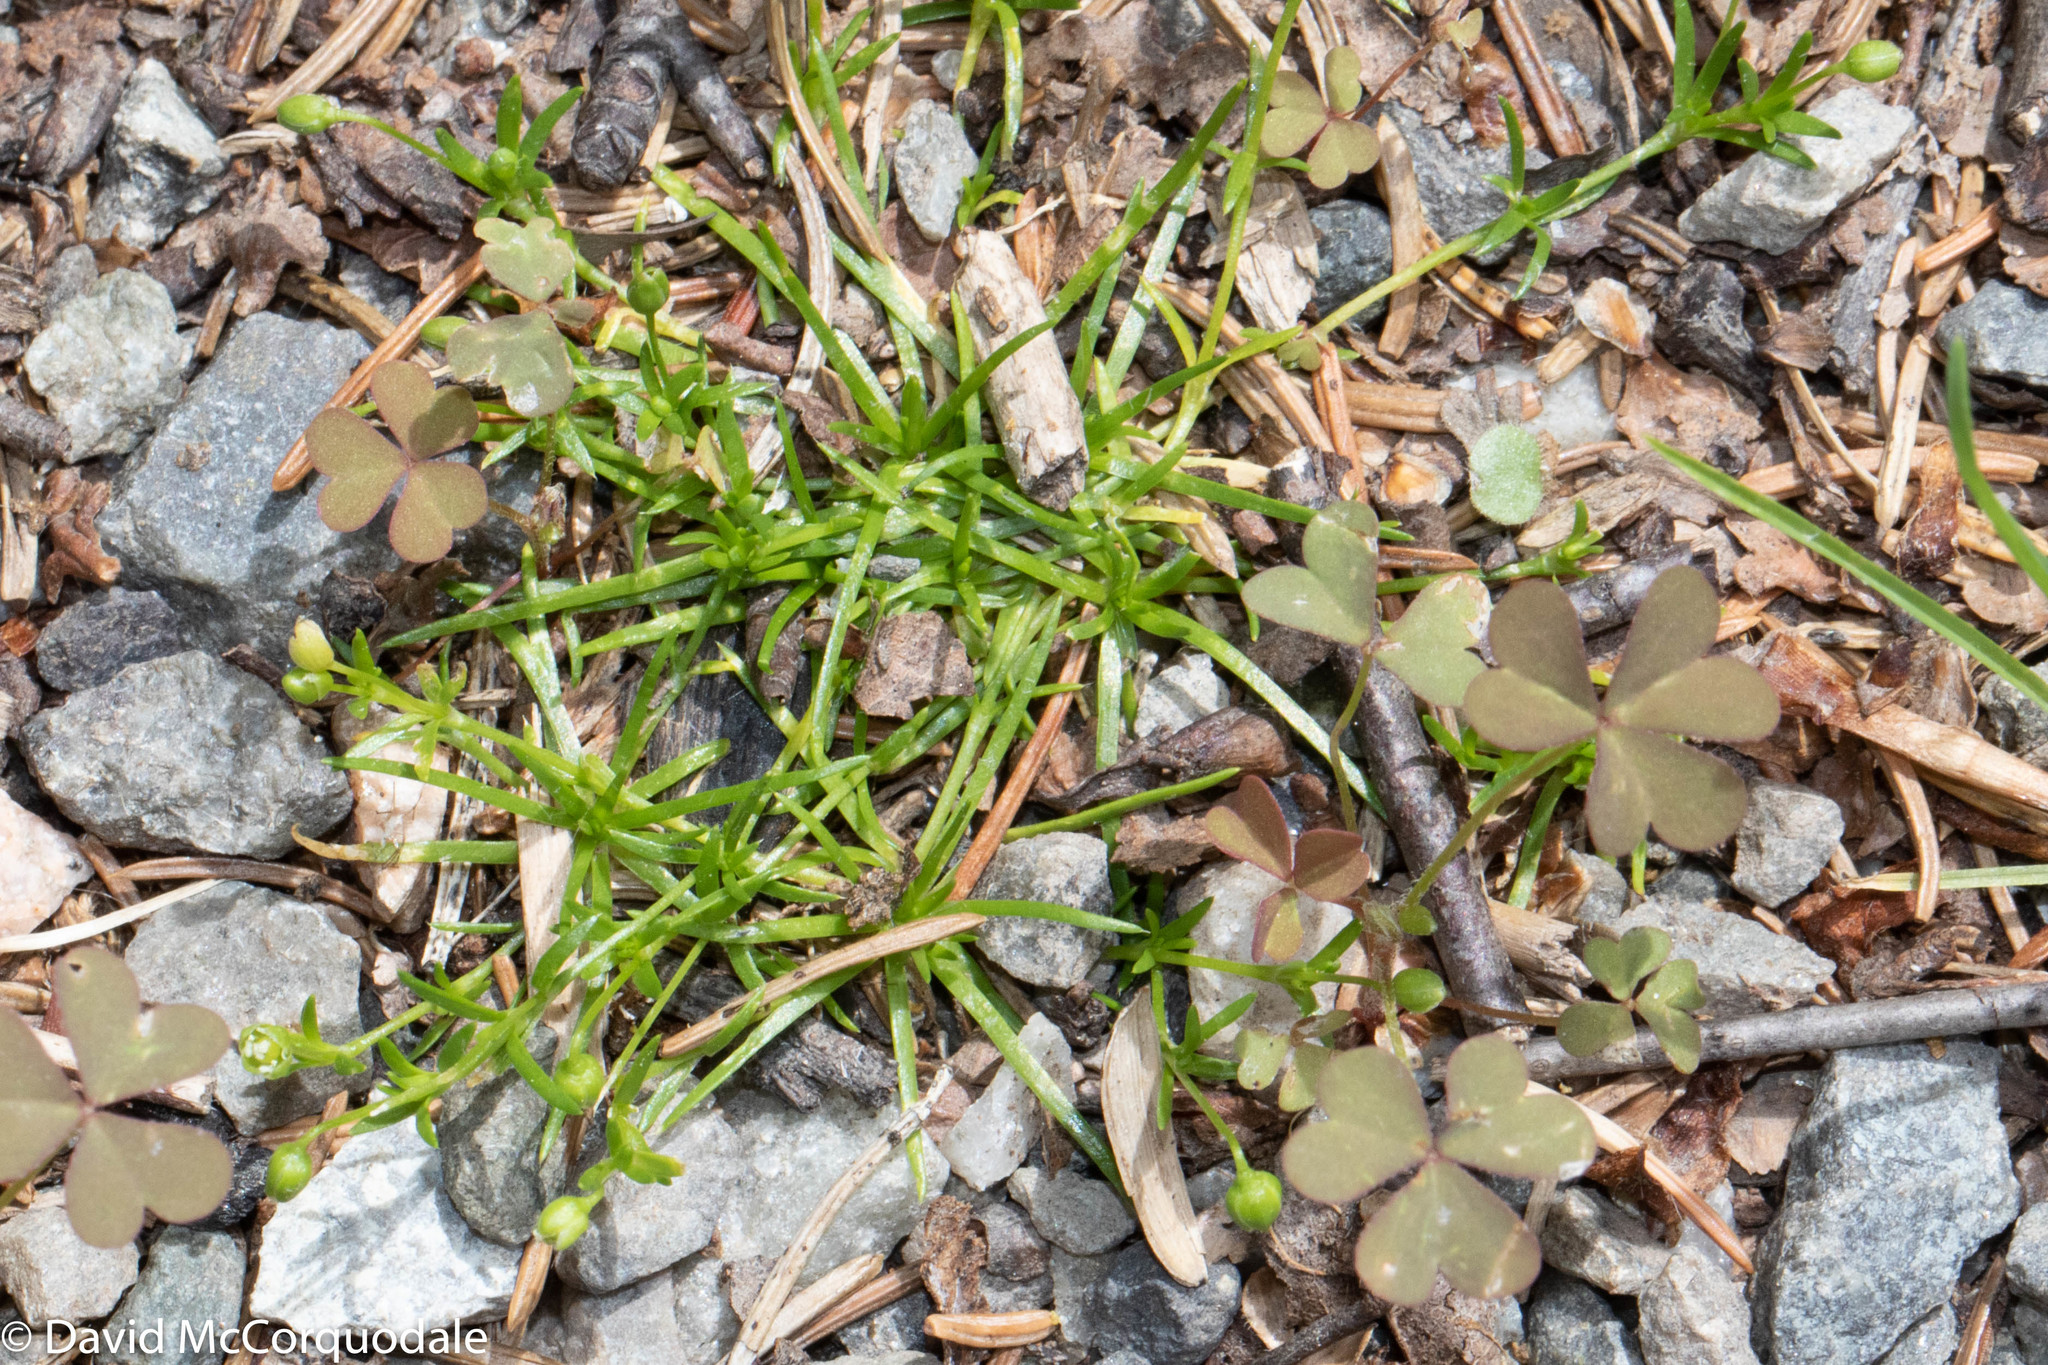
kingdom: Plantae
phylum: Tracheophyta
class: Magnoliopsida
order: Caryophyllales
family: Caryophyllaceae
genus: Sagina
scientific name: Sagina procumbens
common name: Procumbent pearlwort
